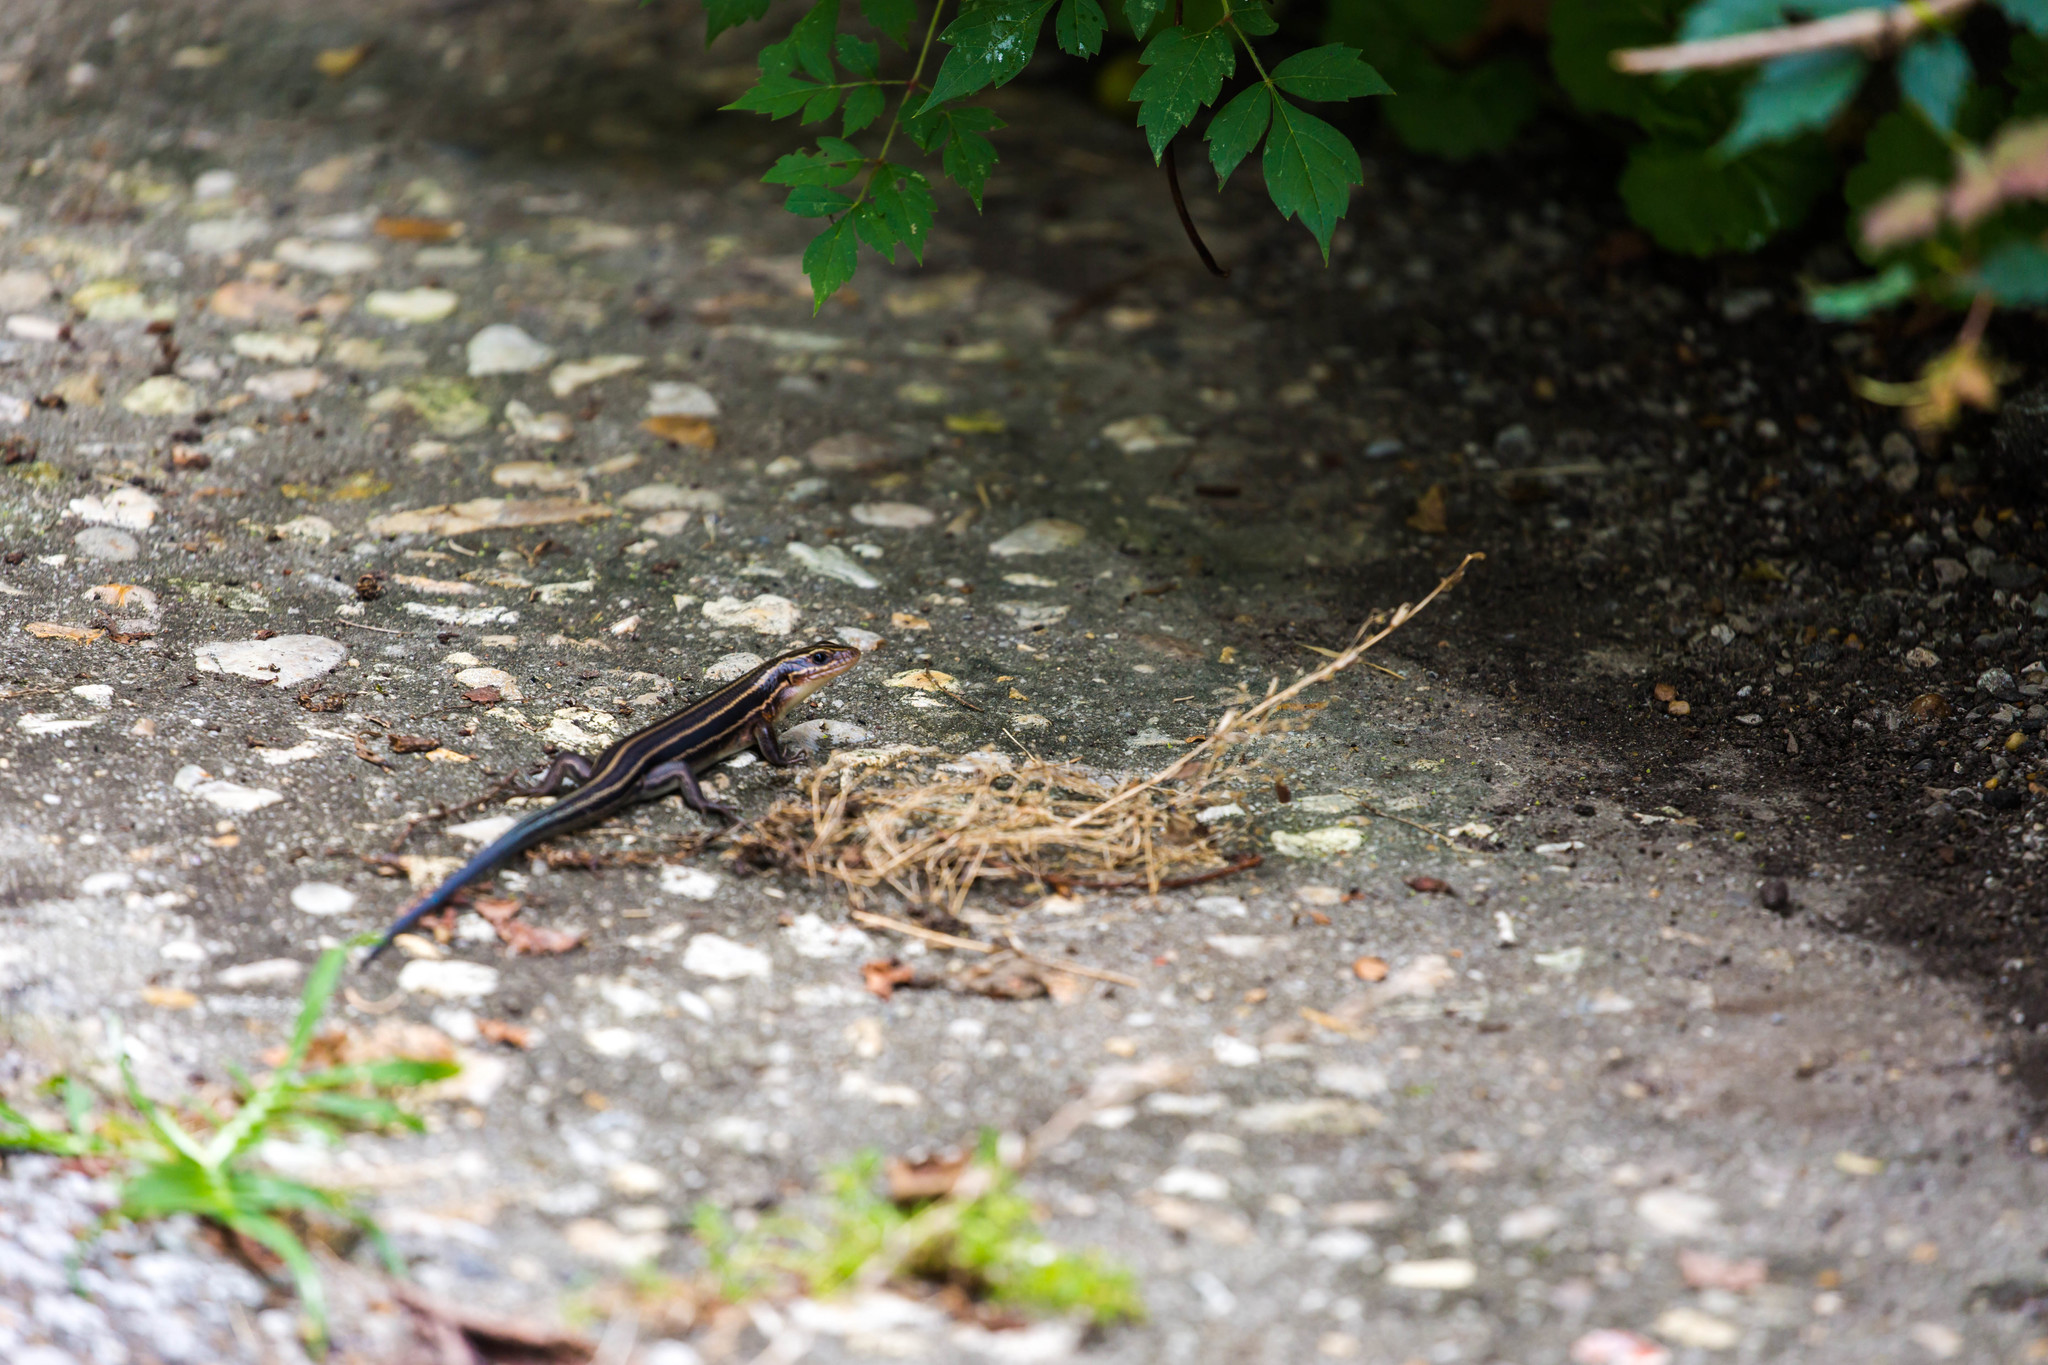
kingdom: Animalia
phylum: Chordata
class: Squamata
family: Scincidae
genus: Plestiodon
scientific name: Plestiodon laticeps
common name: Broadhead skink
